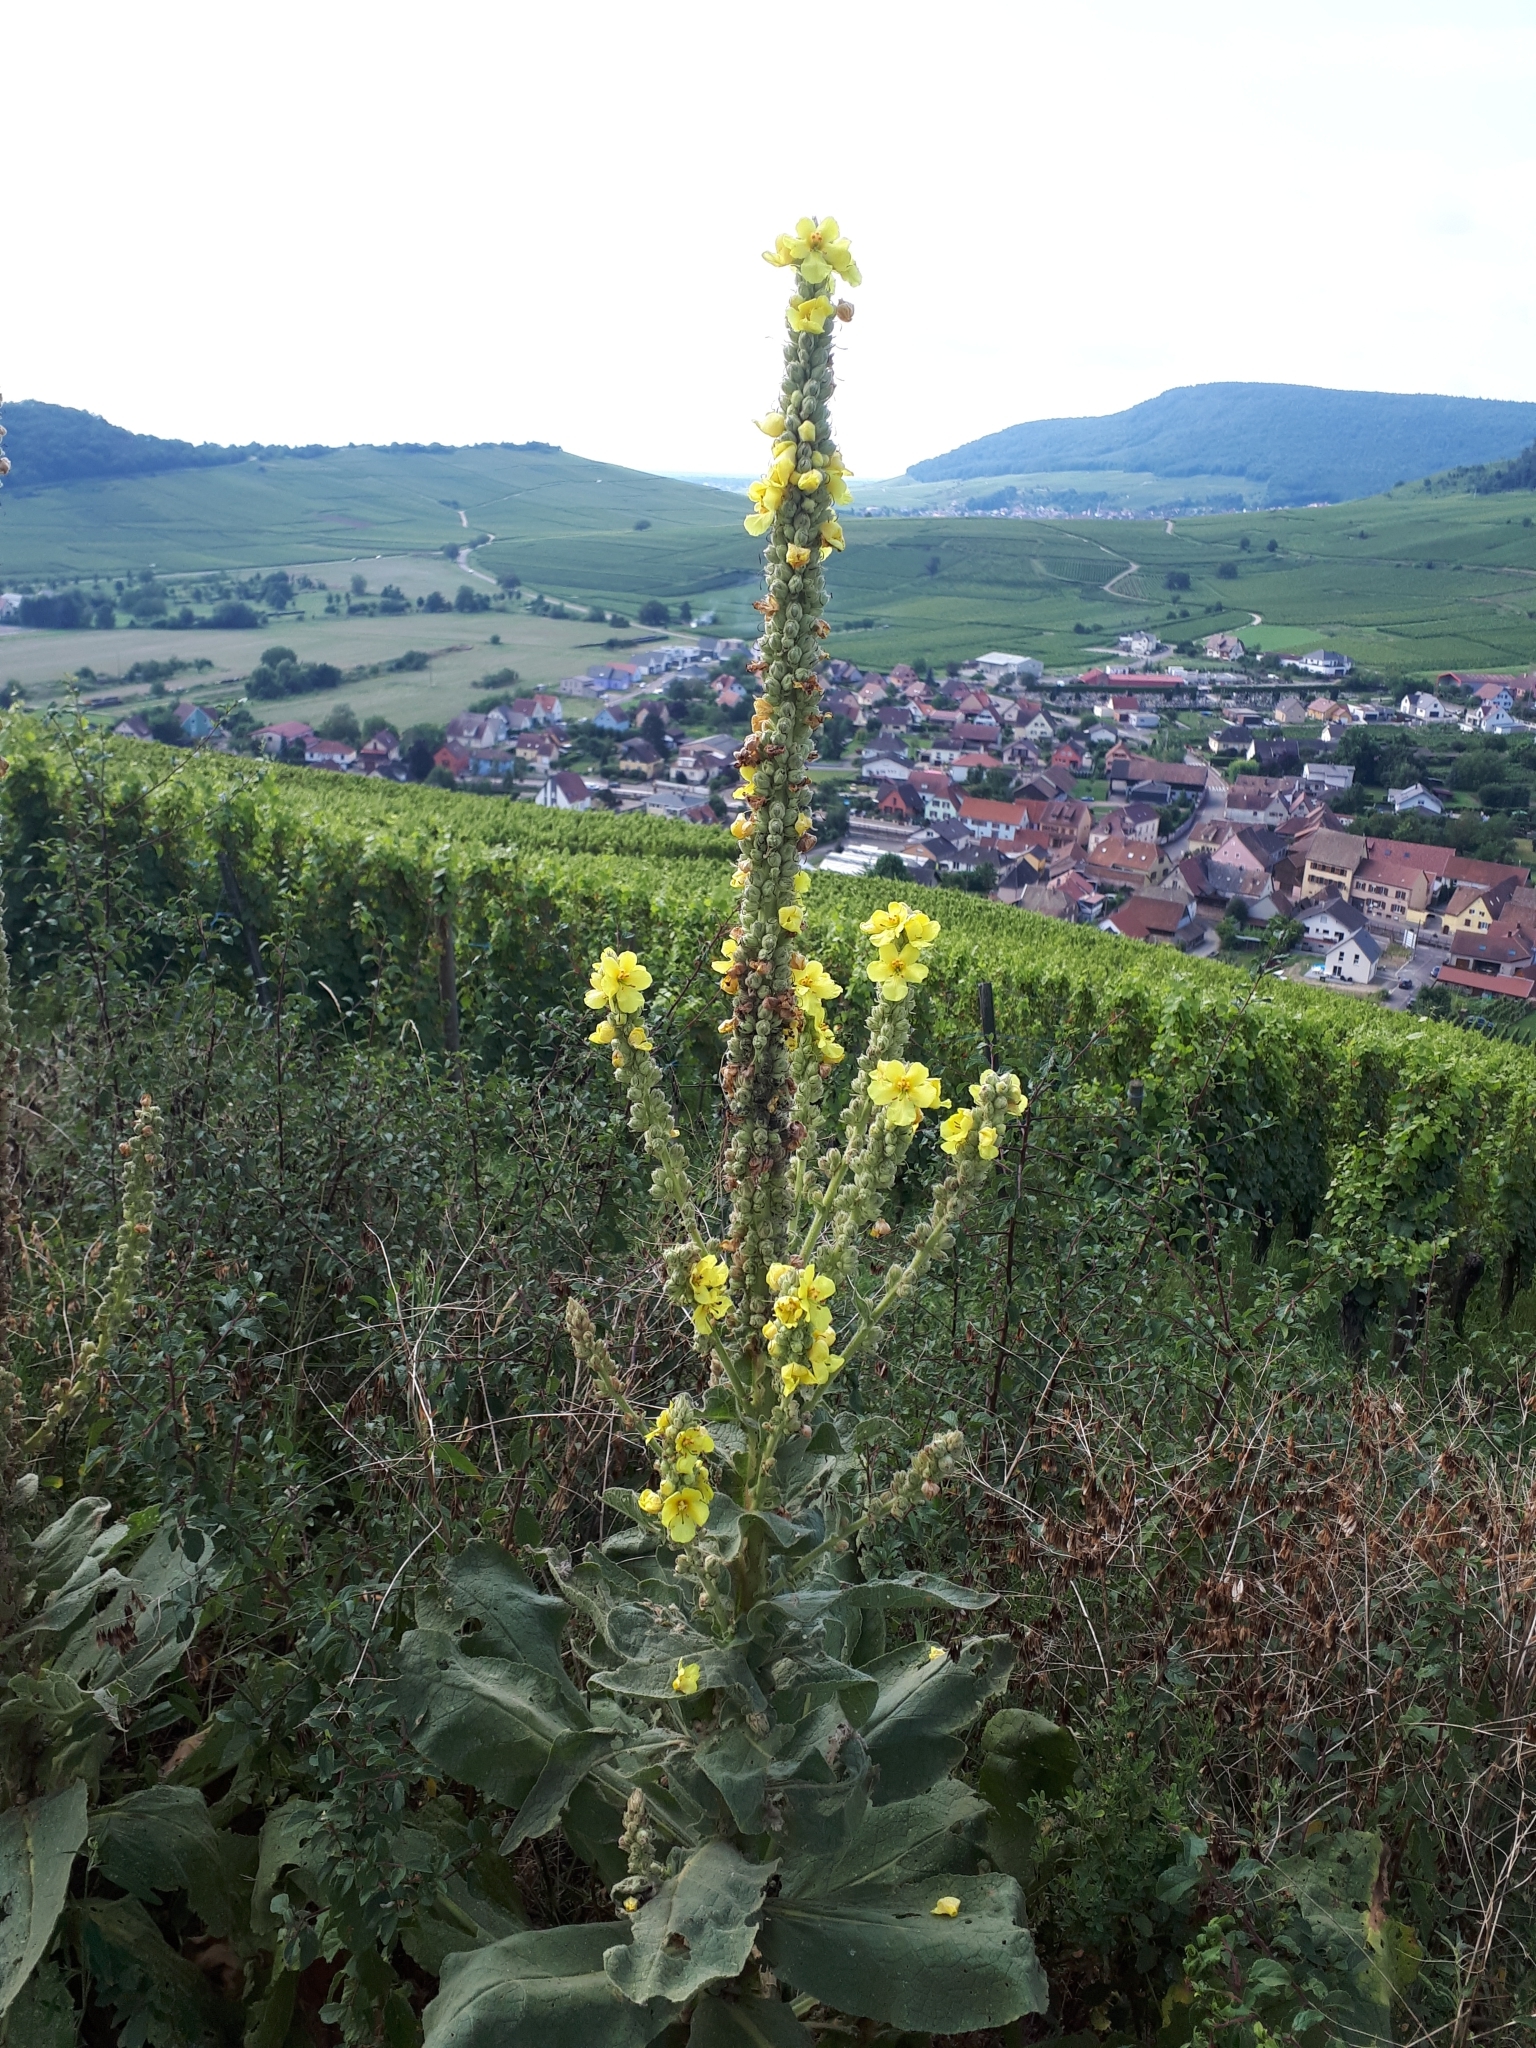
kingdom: Plantae
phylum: Tracheophyta
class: Magnoliopsida
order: Lamiales
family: Scrophulariaceae
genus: Verbascum
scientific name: Verbascum densiflorum
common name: Dense-flowered mullein
